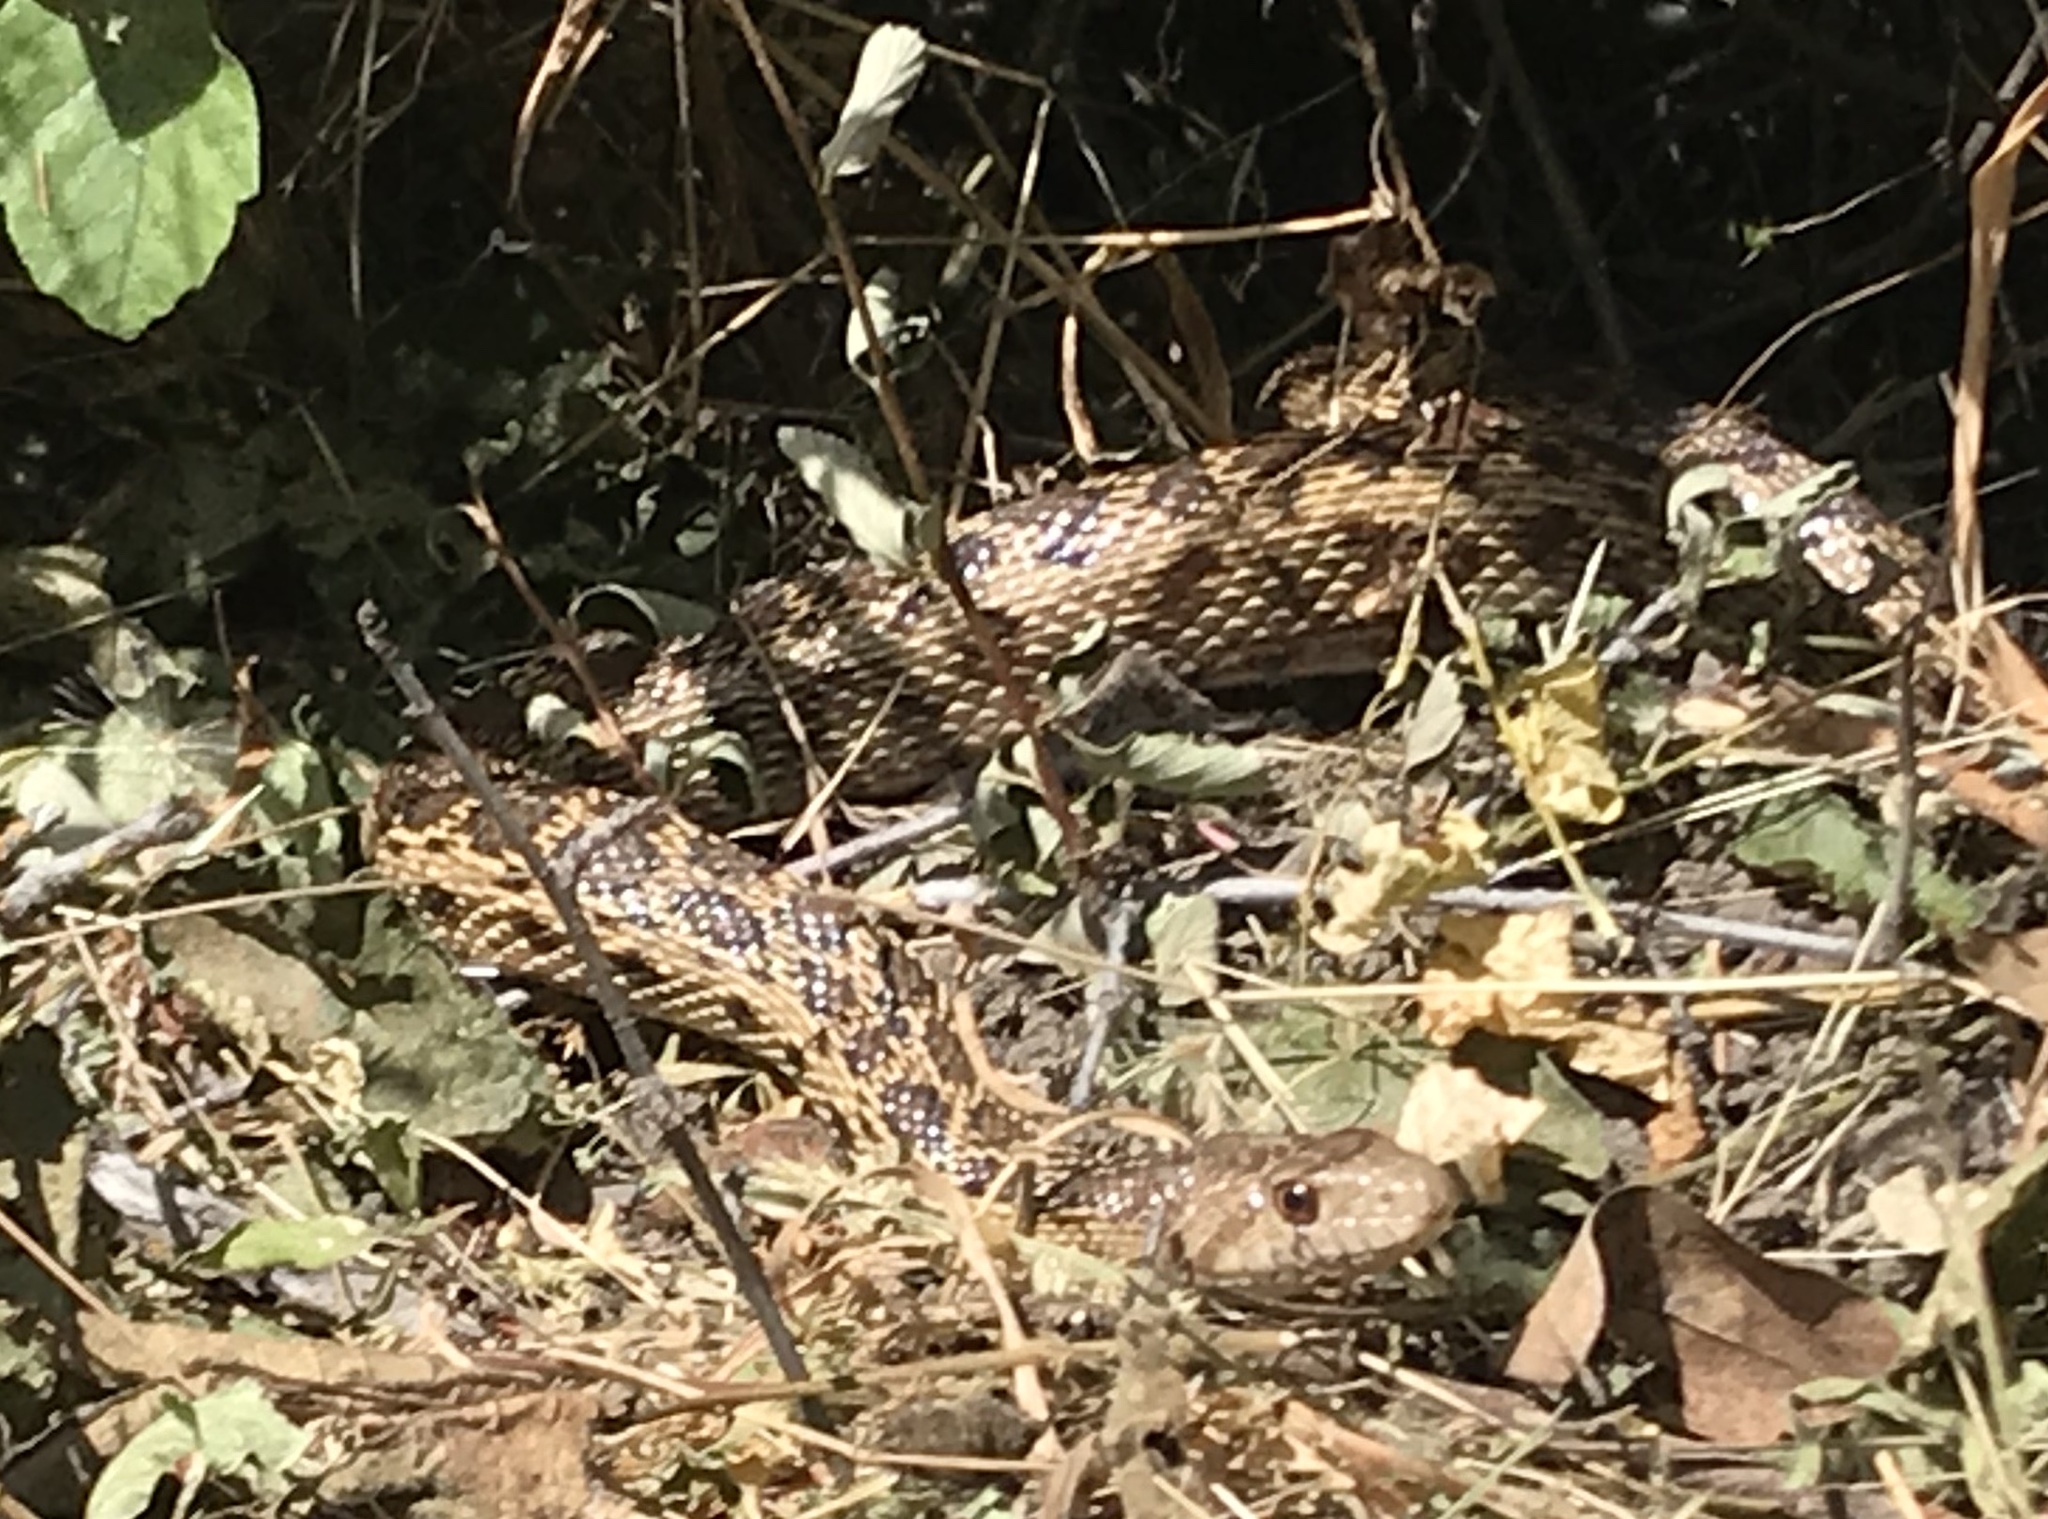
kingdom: Animalia
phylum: Chordata
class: Squamata
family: Colubridae
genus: Pituophis
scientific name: Pituophis catenifer
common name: Gopher snake
